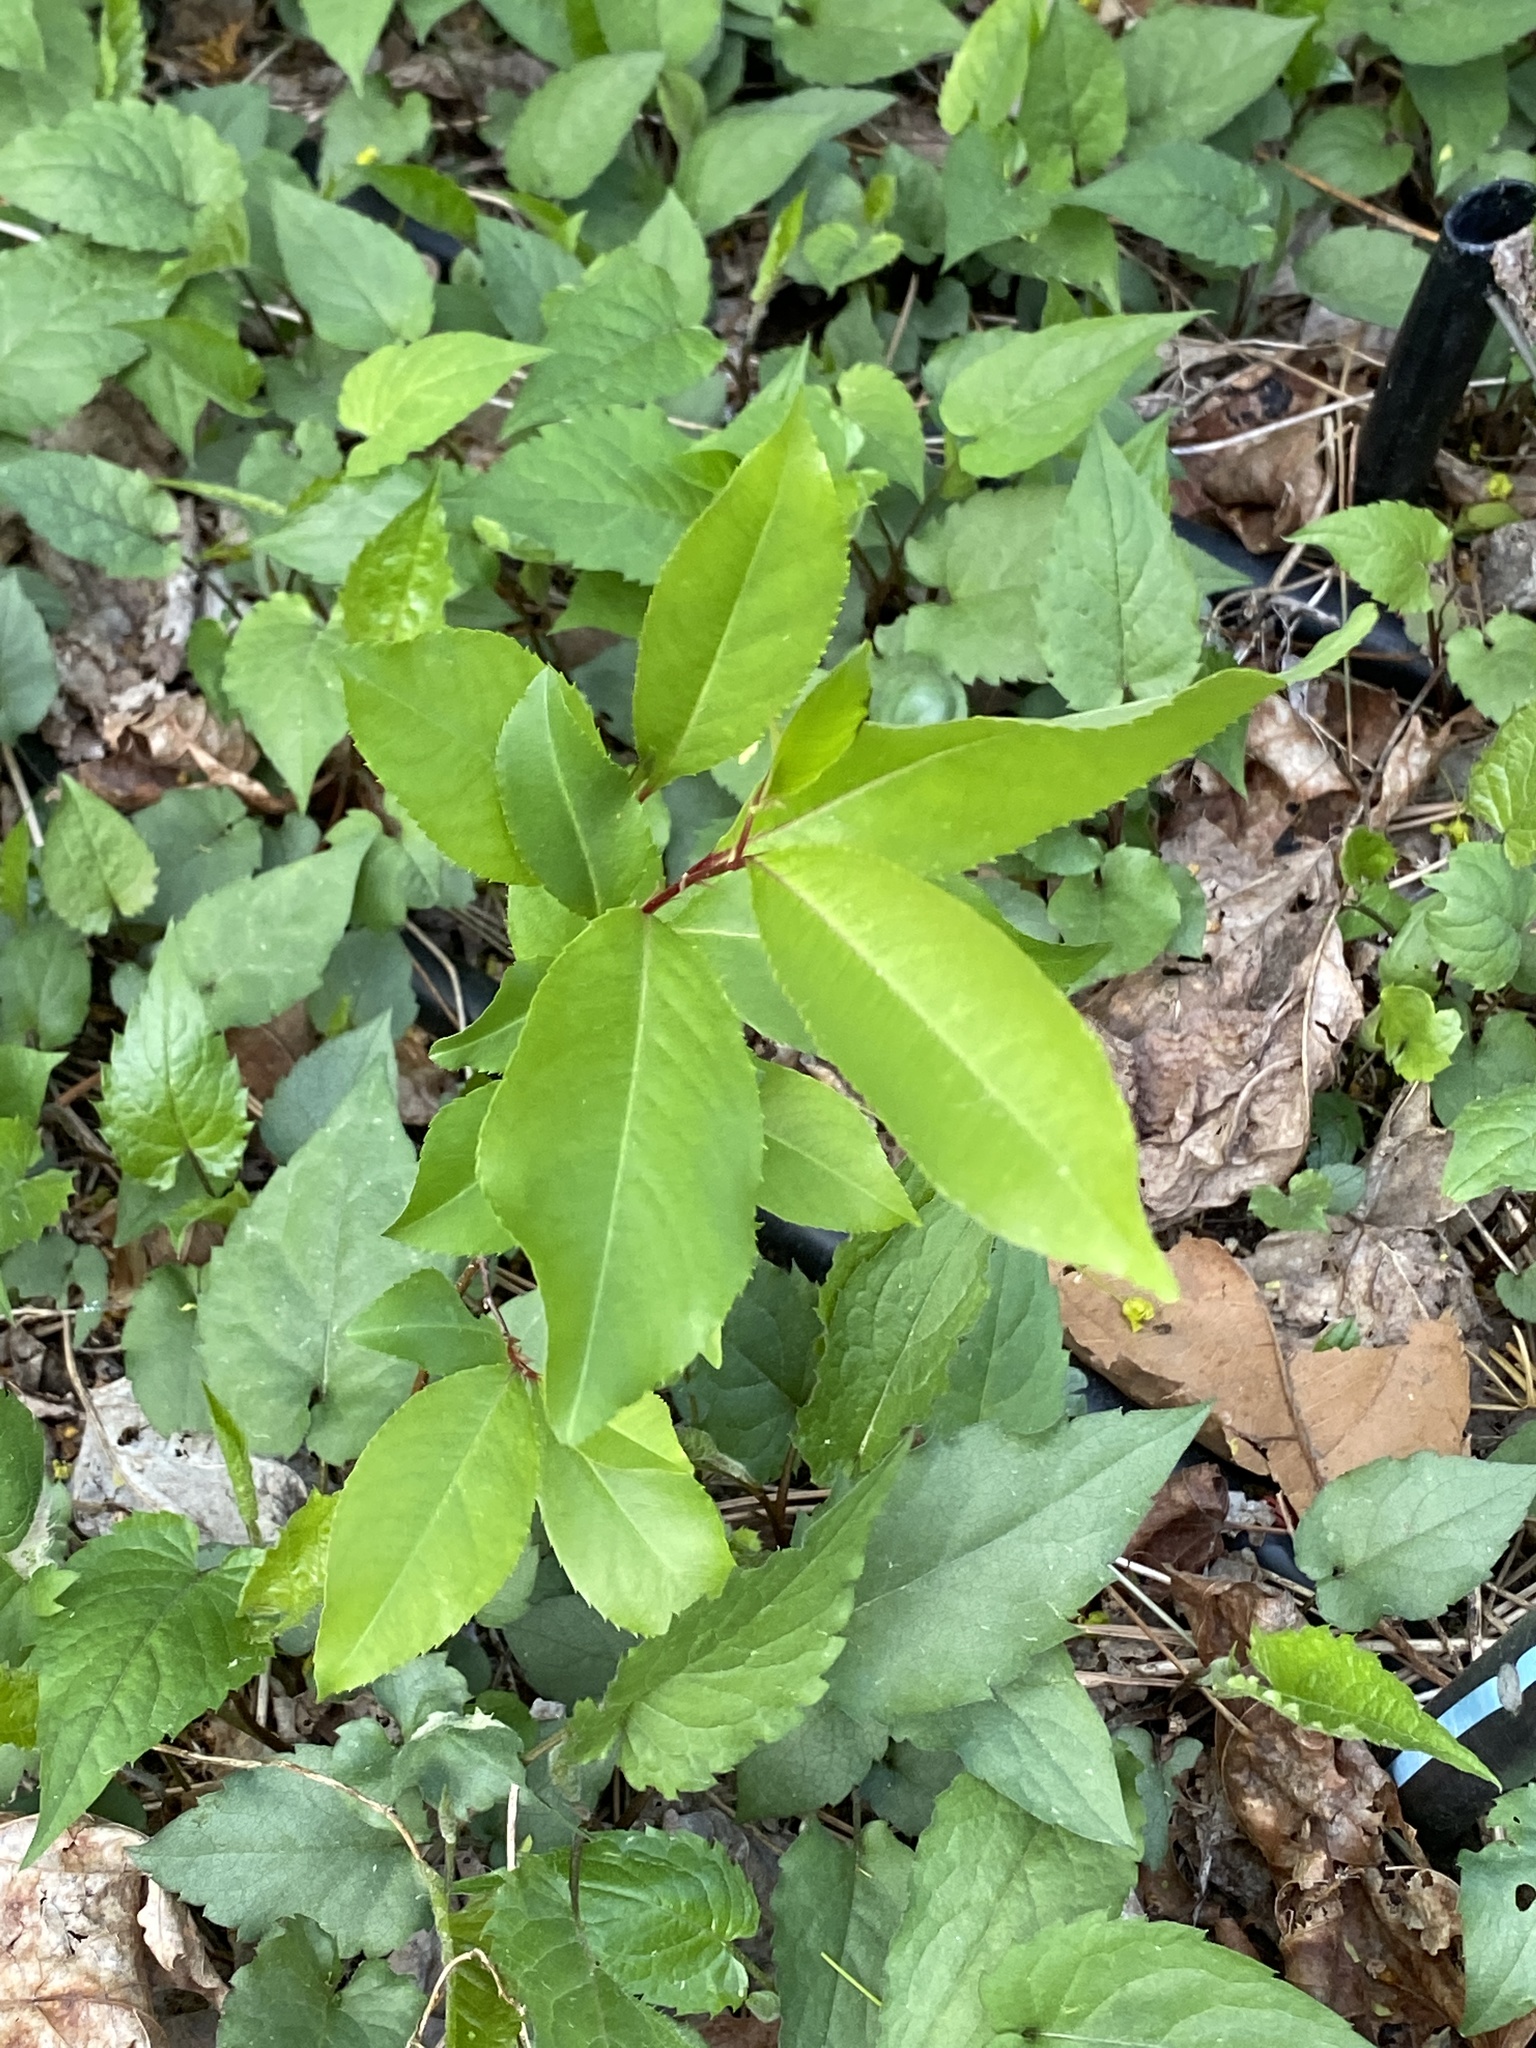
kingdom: Plantae
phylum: Tracheophyta
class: Magnoliopsida
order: Rosales
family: Rosaceae
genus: Prunus
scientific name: Prunus serotina
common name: Black cherry
